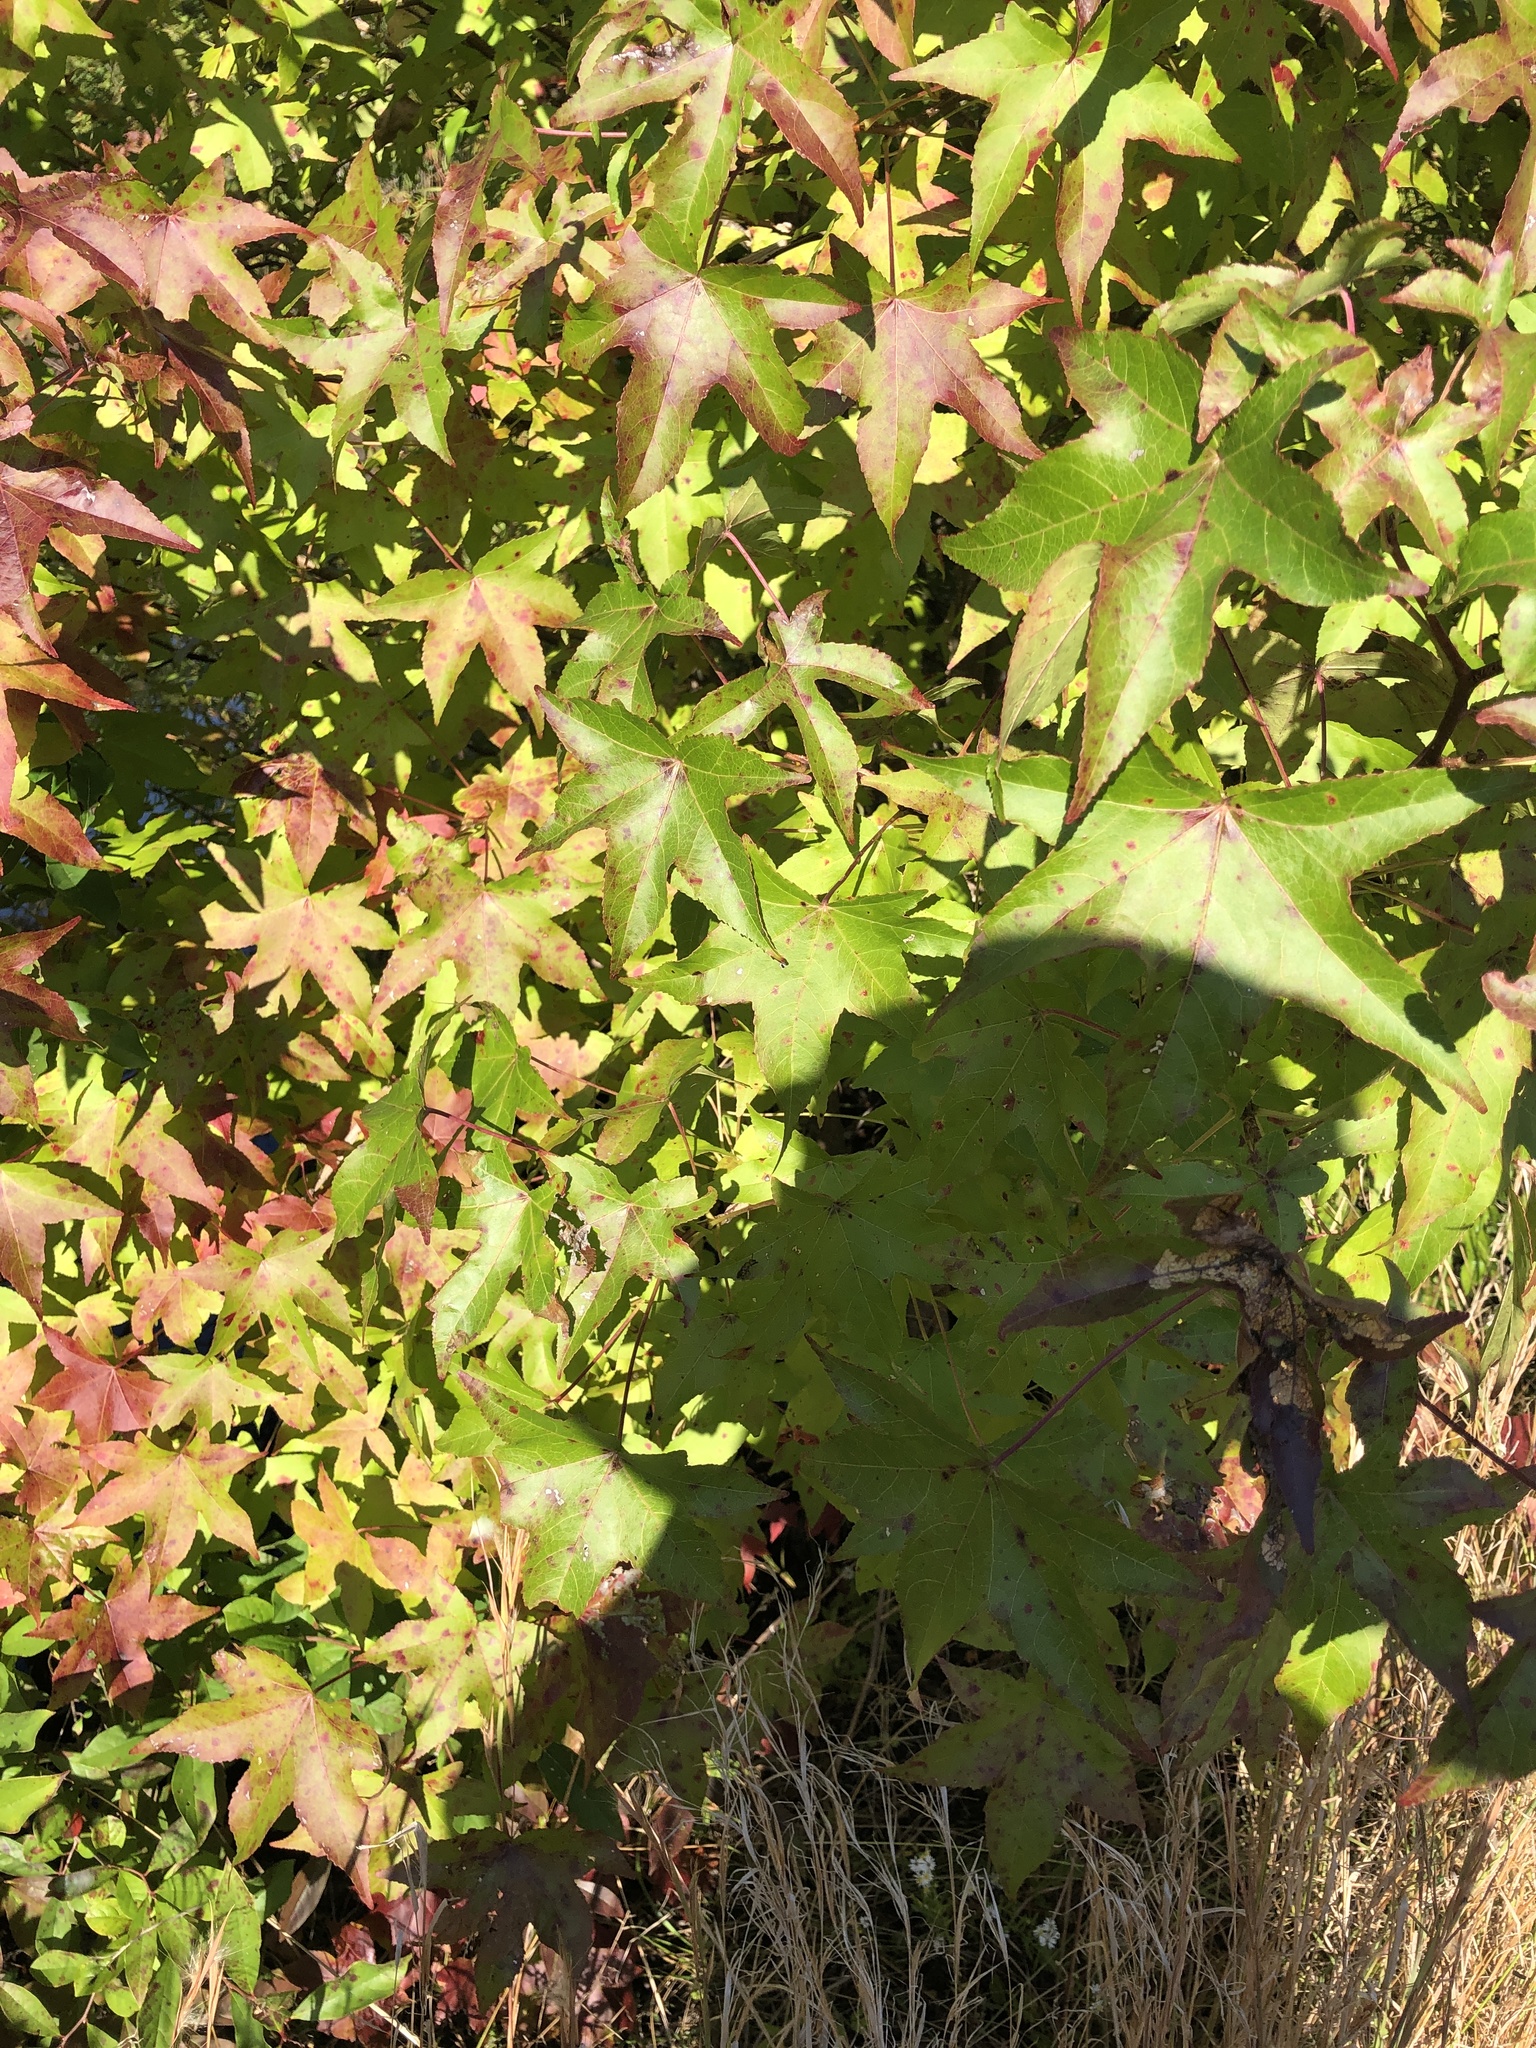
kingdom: Plantae
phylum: Tracheophyta
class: Magnoliopsida
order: Saxifragales
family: Altingiaceae
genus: Liquidambar
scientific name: Liquidambar styraciflua
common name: Sweet gum
